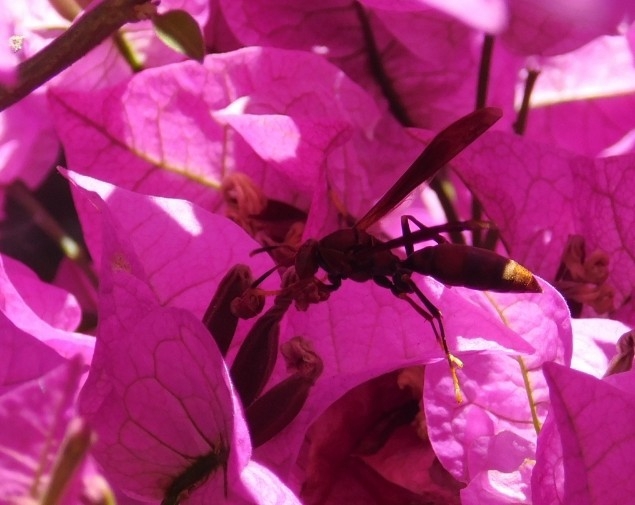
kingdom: Animalia
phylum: Arthropoda
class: Insecta
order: Hymenoptera
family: Pompilidae
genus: Aphanilopterus
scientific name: Aphanilopterus
